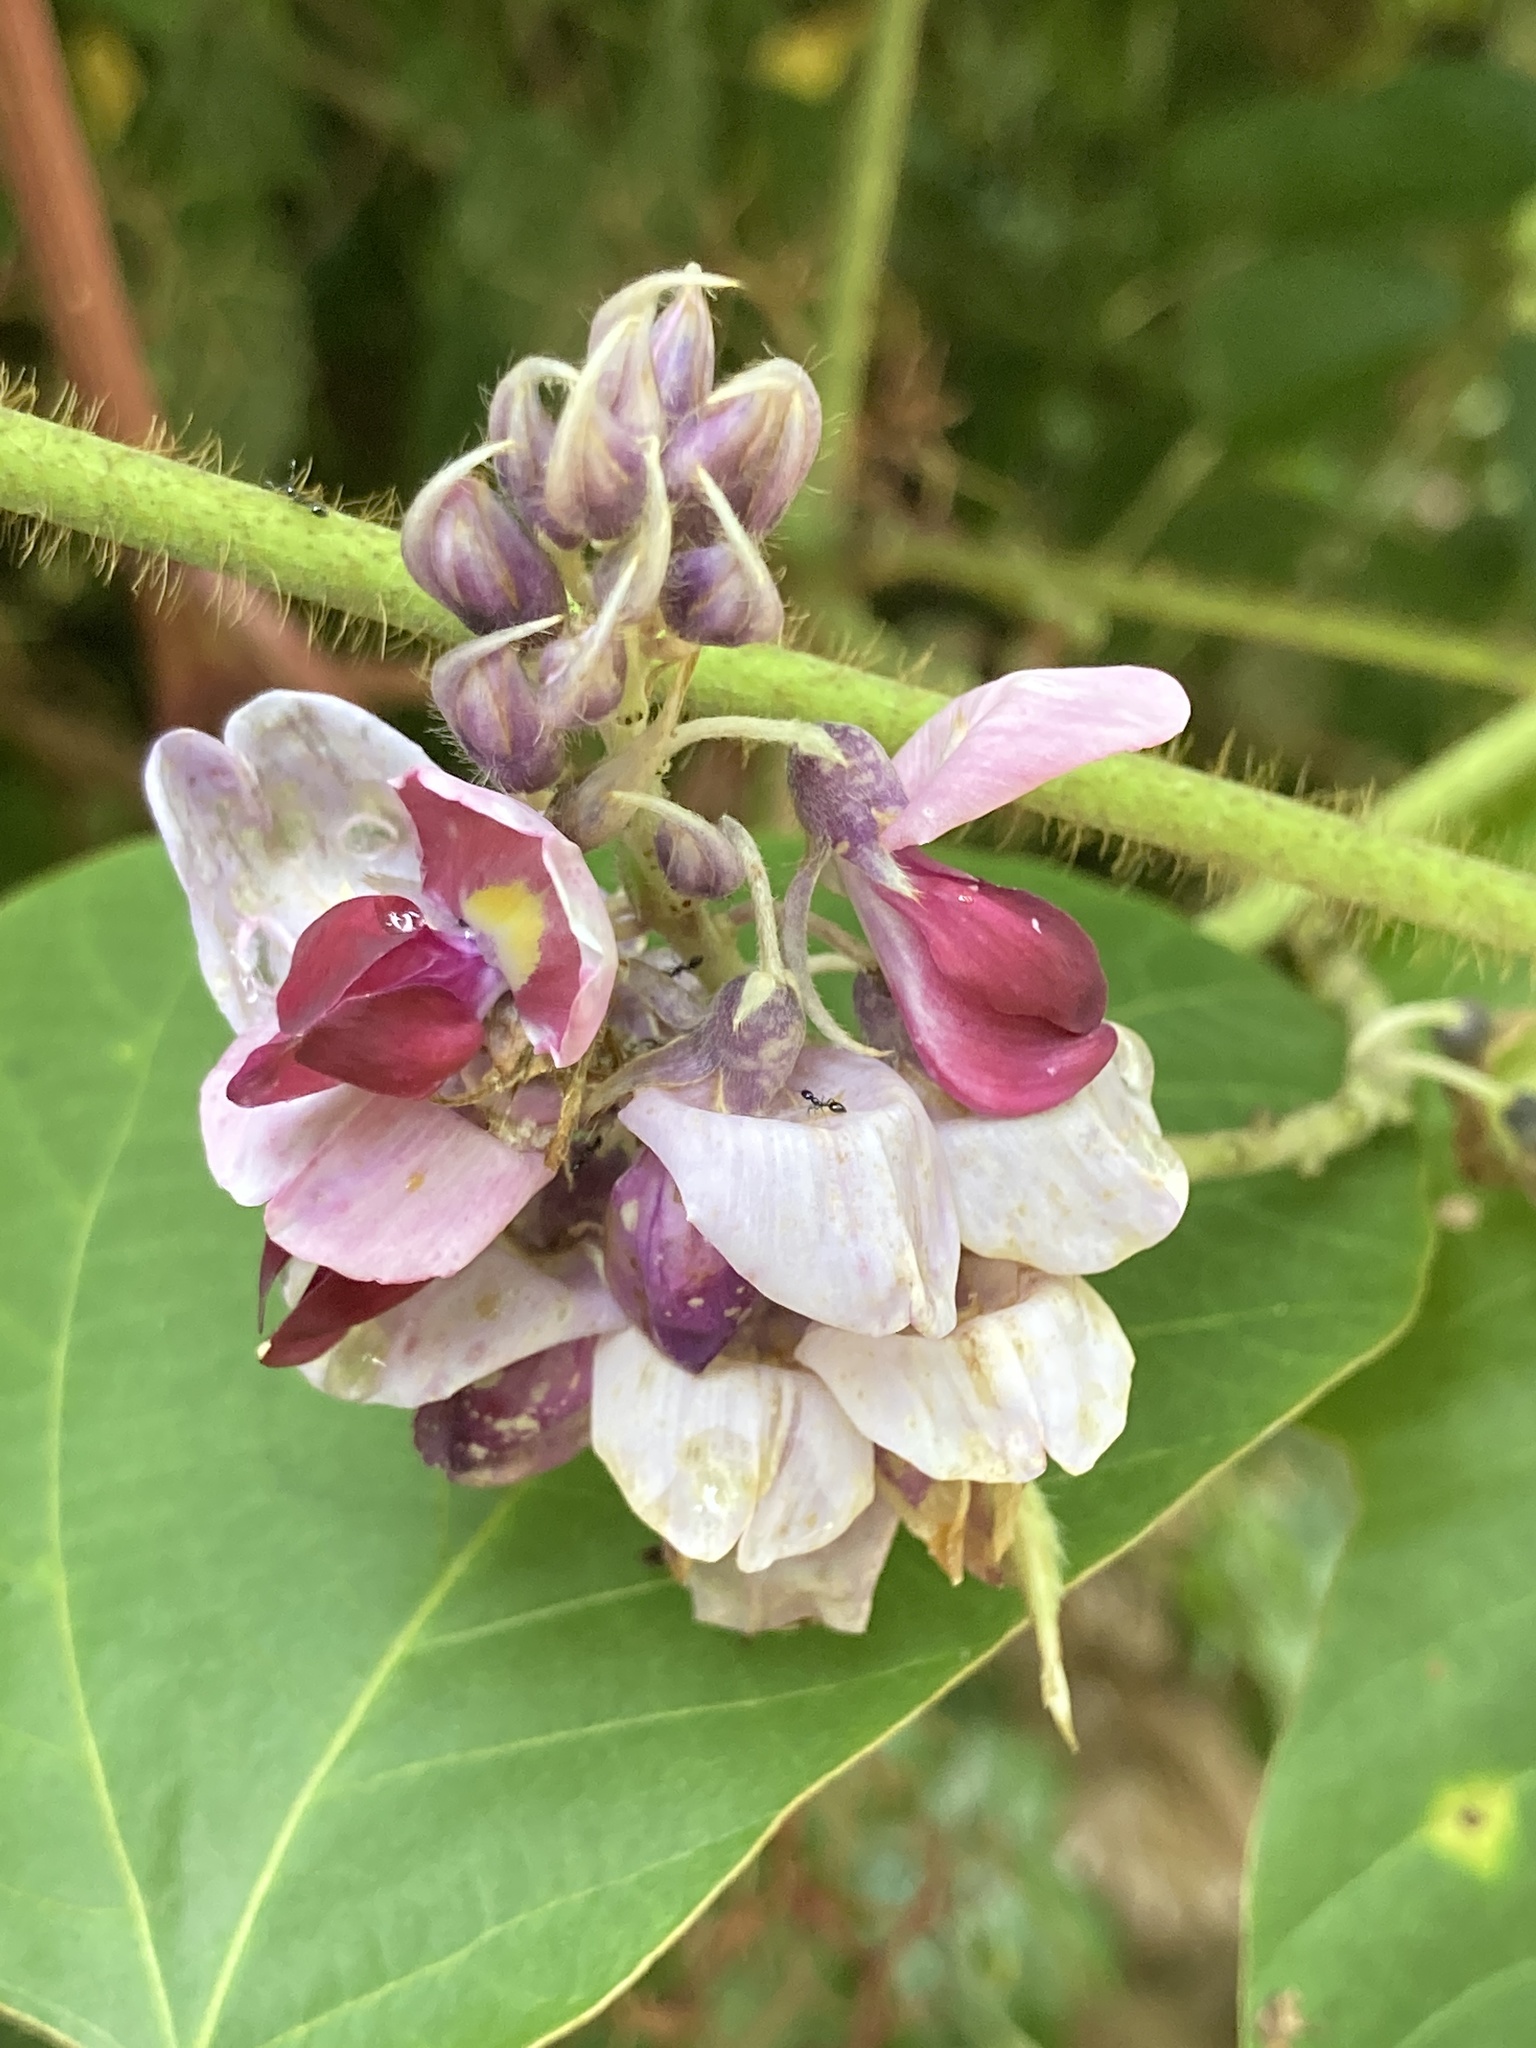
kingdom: Plantae
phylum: Tracheophyta
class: Magnoliopsida
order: Fabales
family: Fabaceae
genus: Pueraria
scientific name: Pueraria montana
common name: Kudzu
